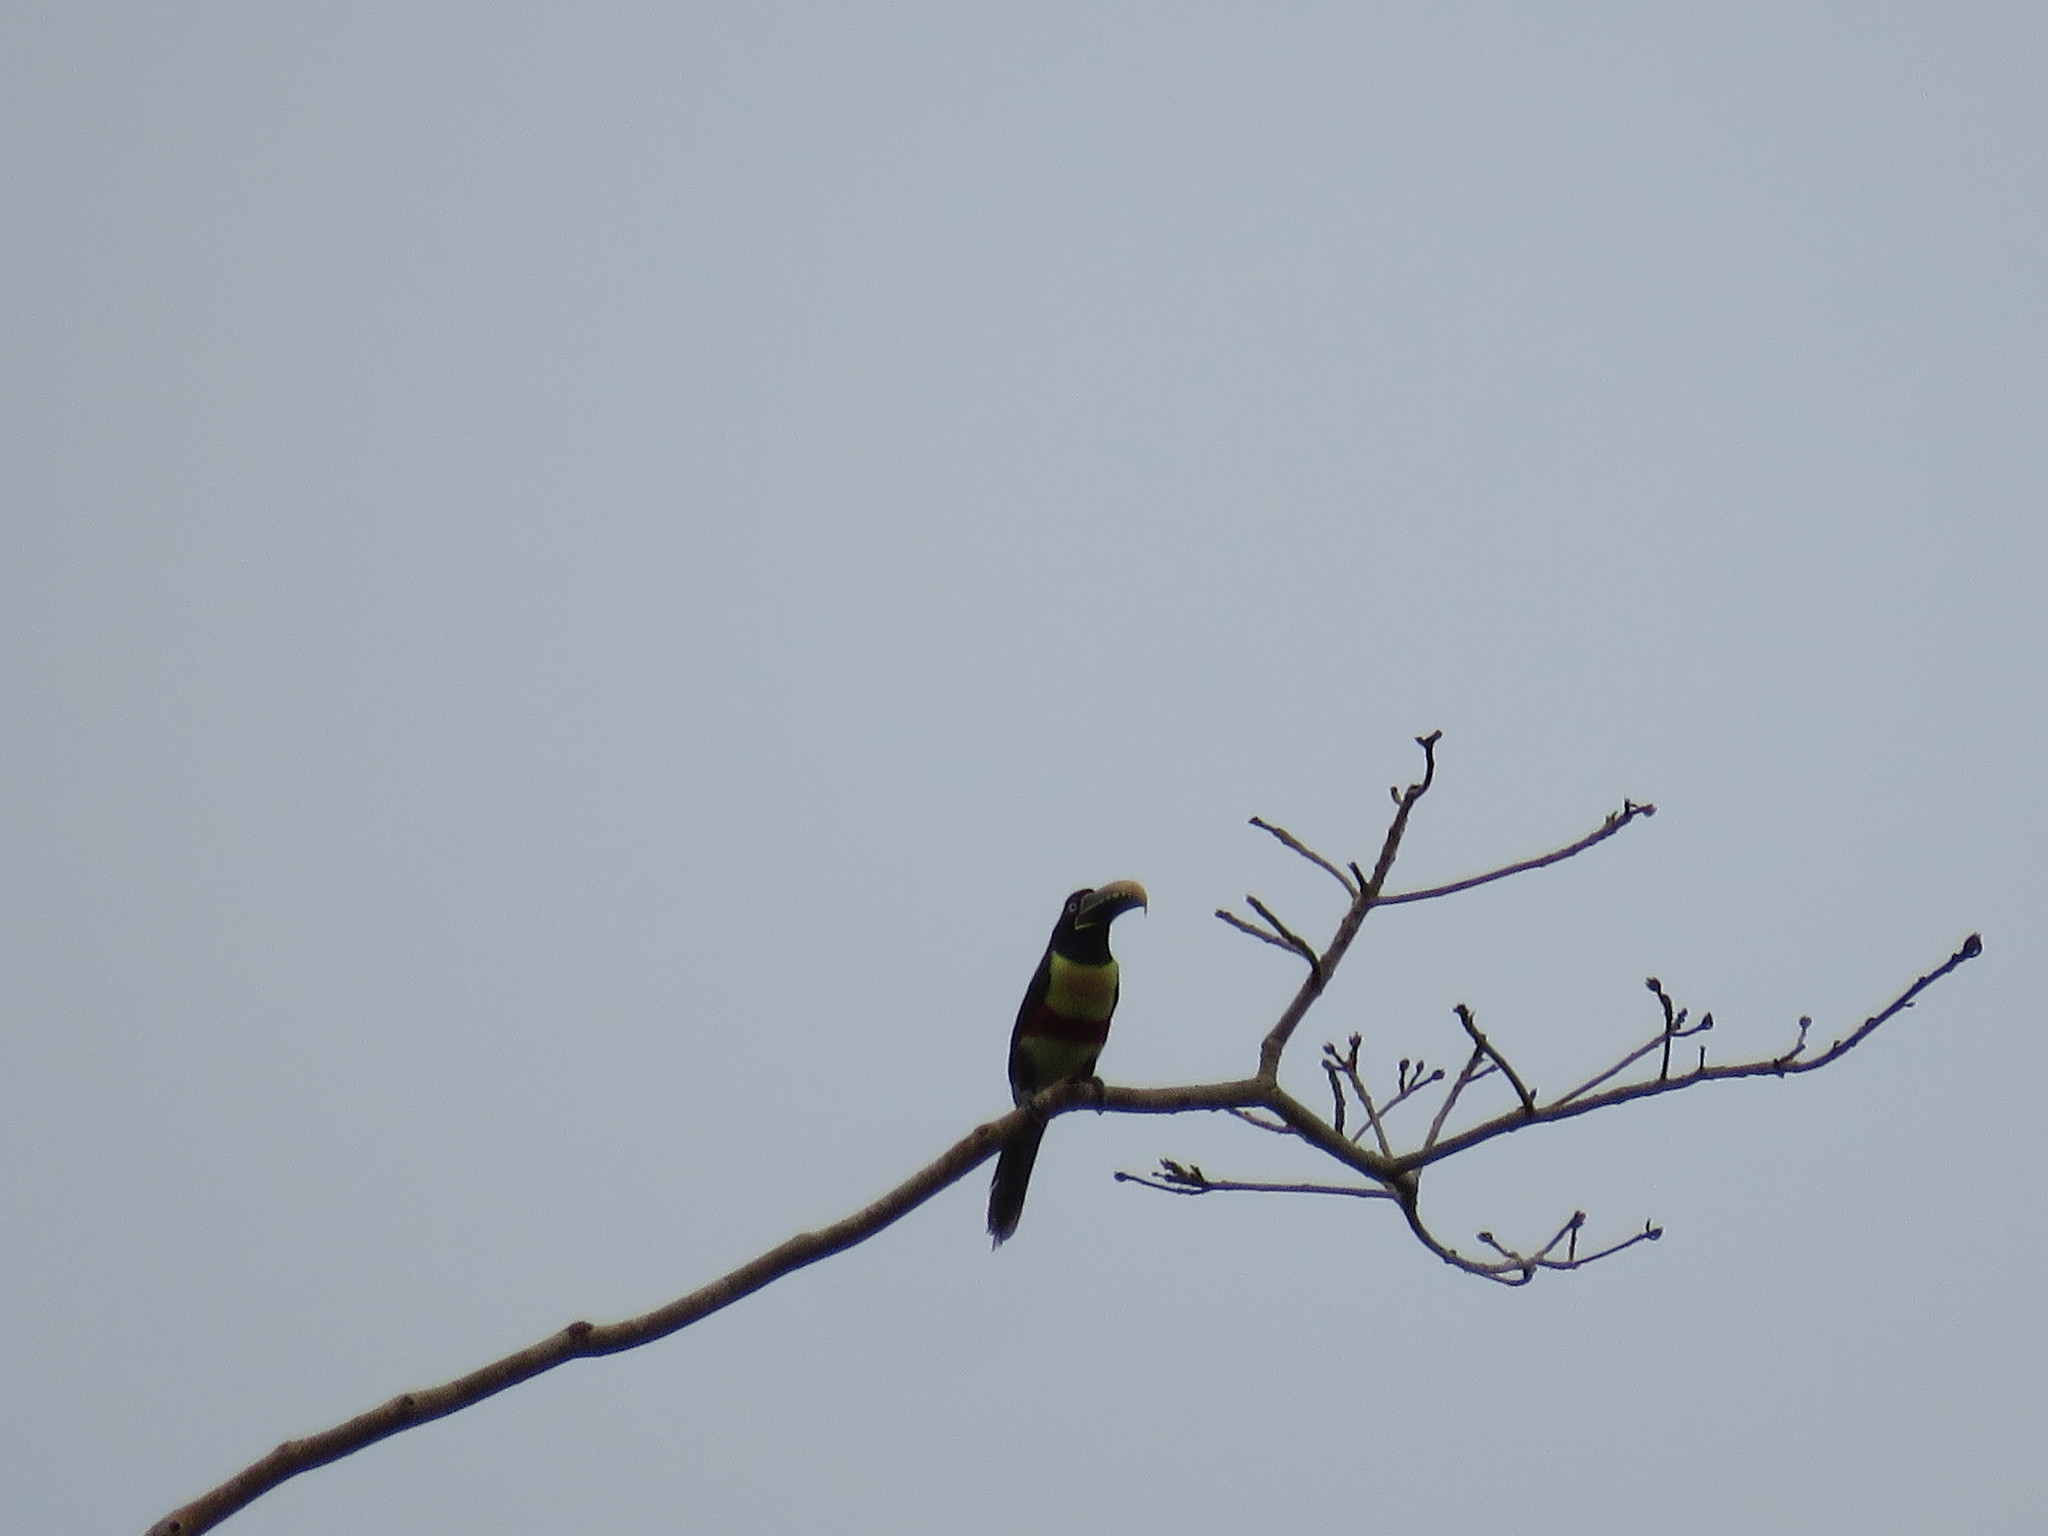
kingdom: Animalia
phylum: Chordata
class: Aves
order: Piciformes
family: Ramphastidae
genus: Pteroglossus
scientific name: Pteroglossus castanotis
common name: Chestnut-eared aracari
